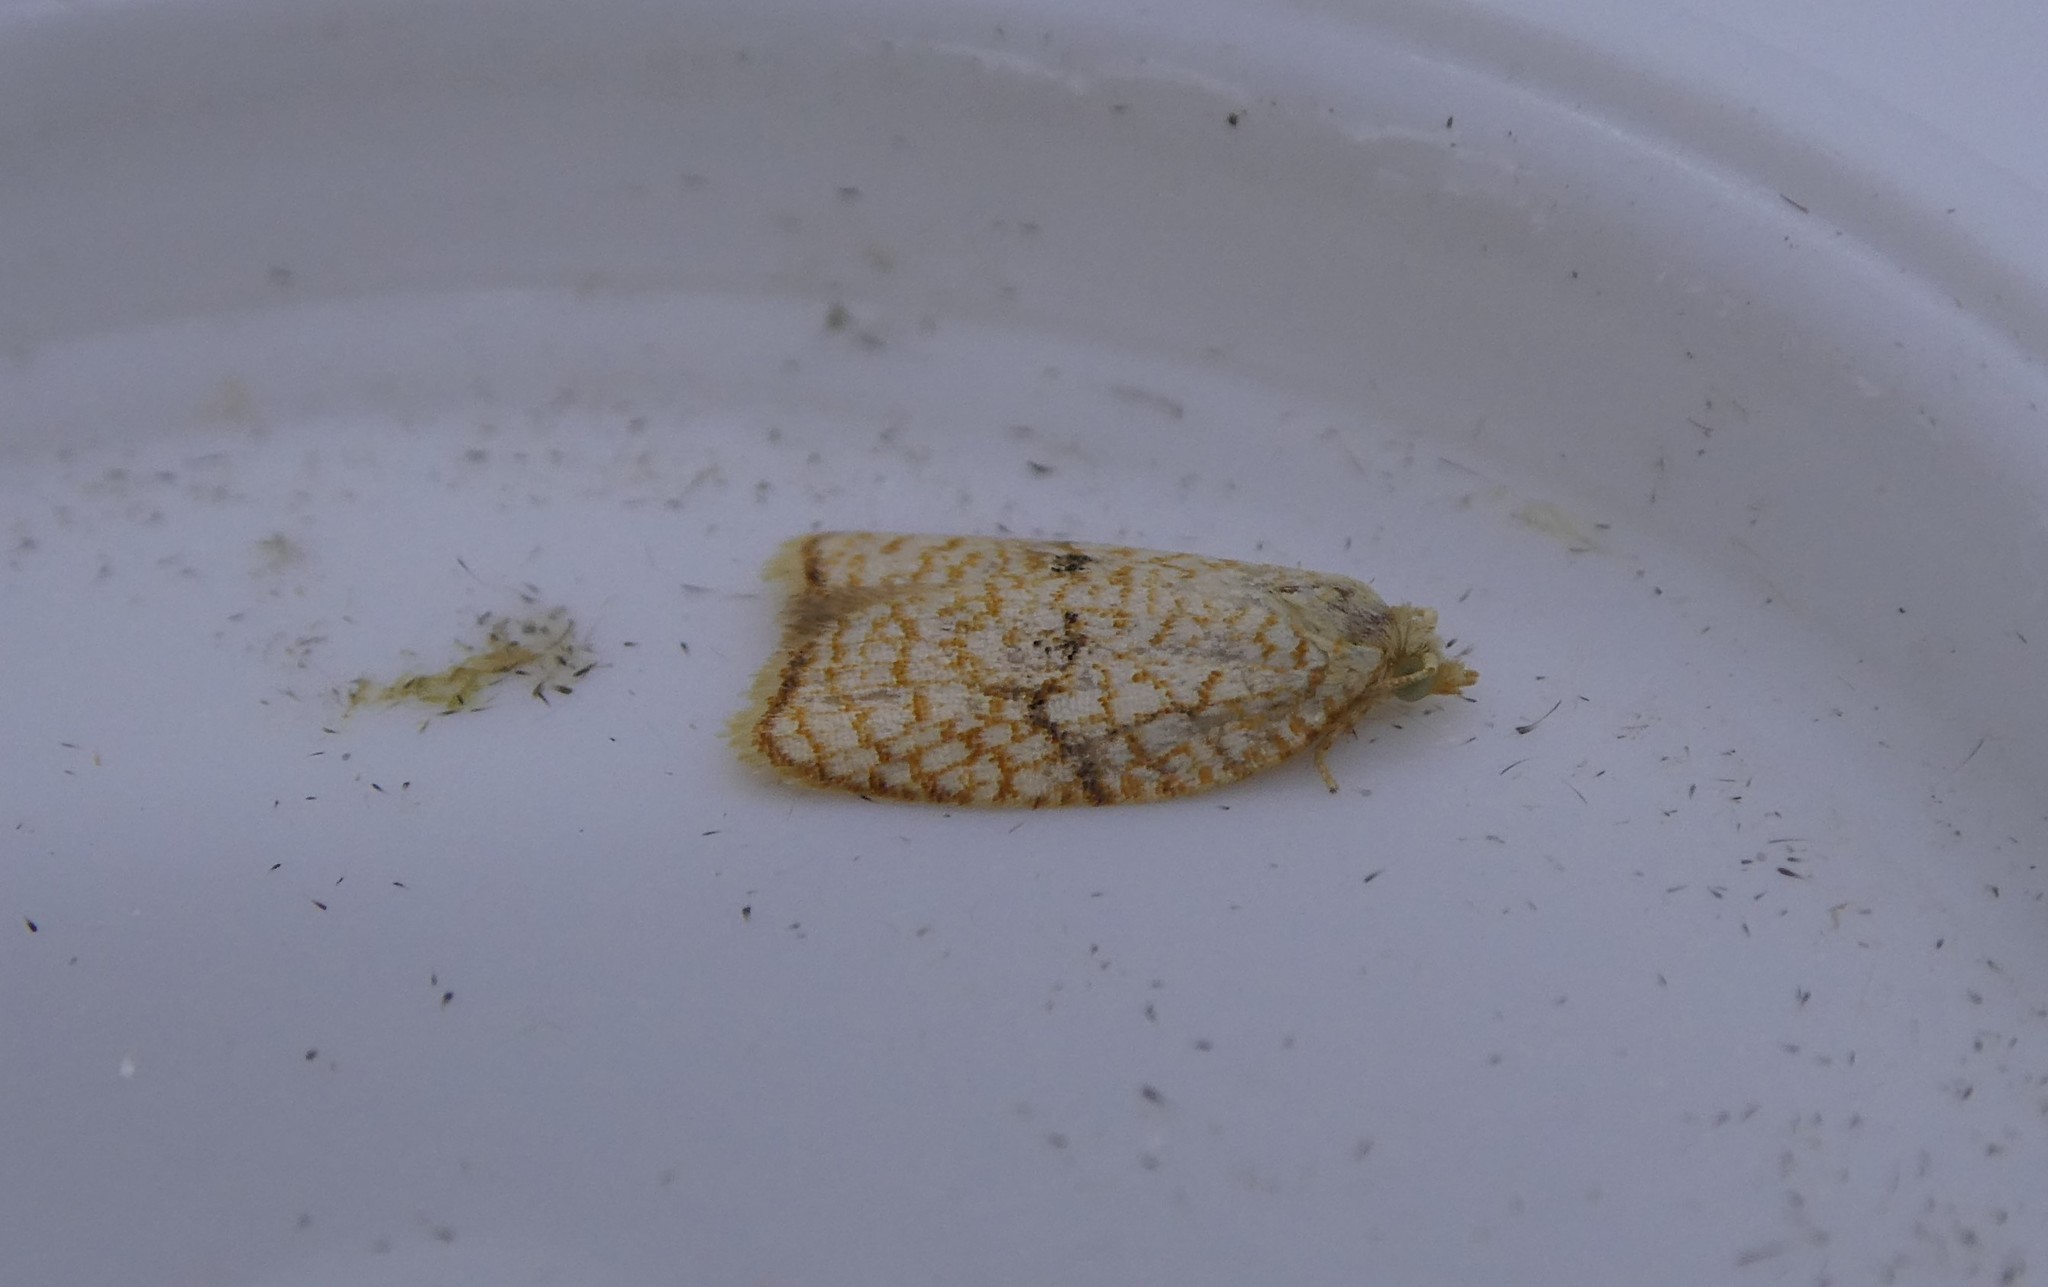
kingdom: Animalia
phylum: Arthropoda
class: Insecta
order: Lepidoptera
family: Tortricidae
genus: Acleris
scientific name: Acleris forsskaleana
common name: Maple button
